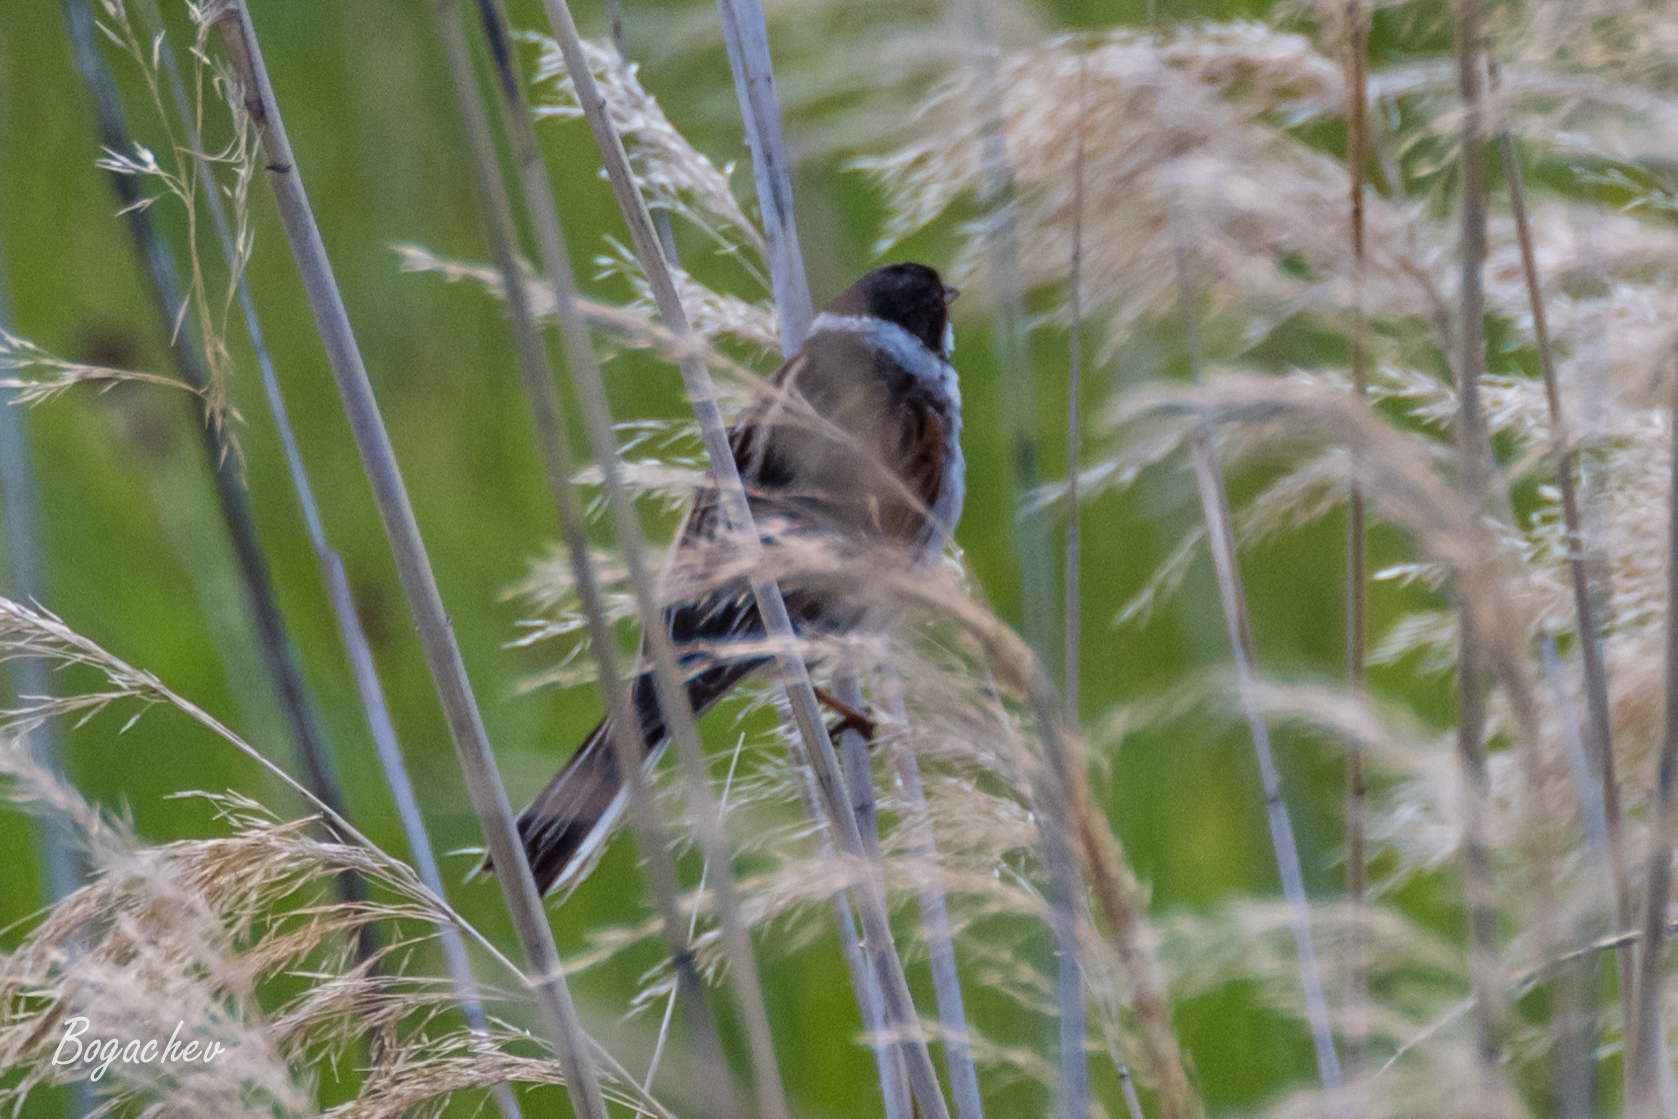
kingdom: Animalia
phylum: Chordata
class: Aves
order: Passeriformes
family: Emberizidae
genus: Emberiza
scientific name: Emberiza schoeniclus
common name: Reed bunting
